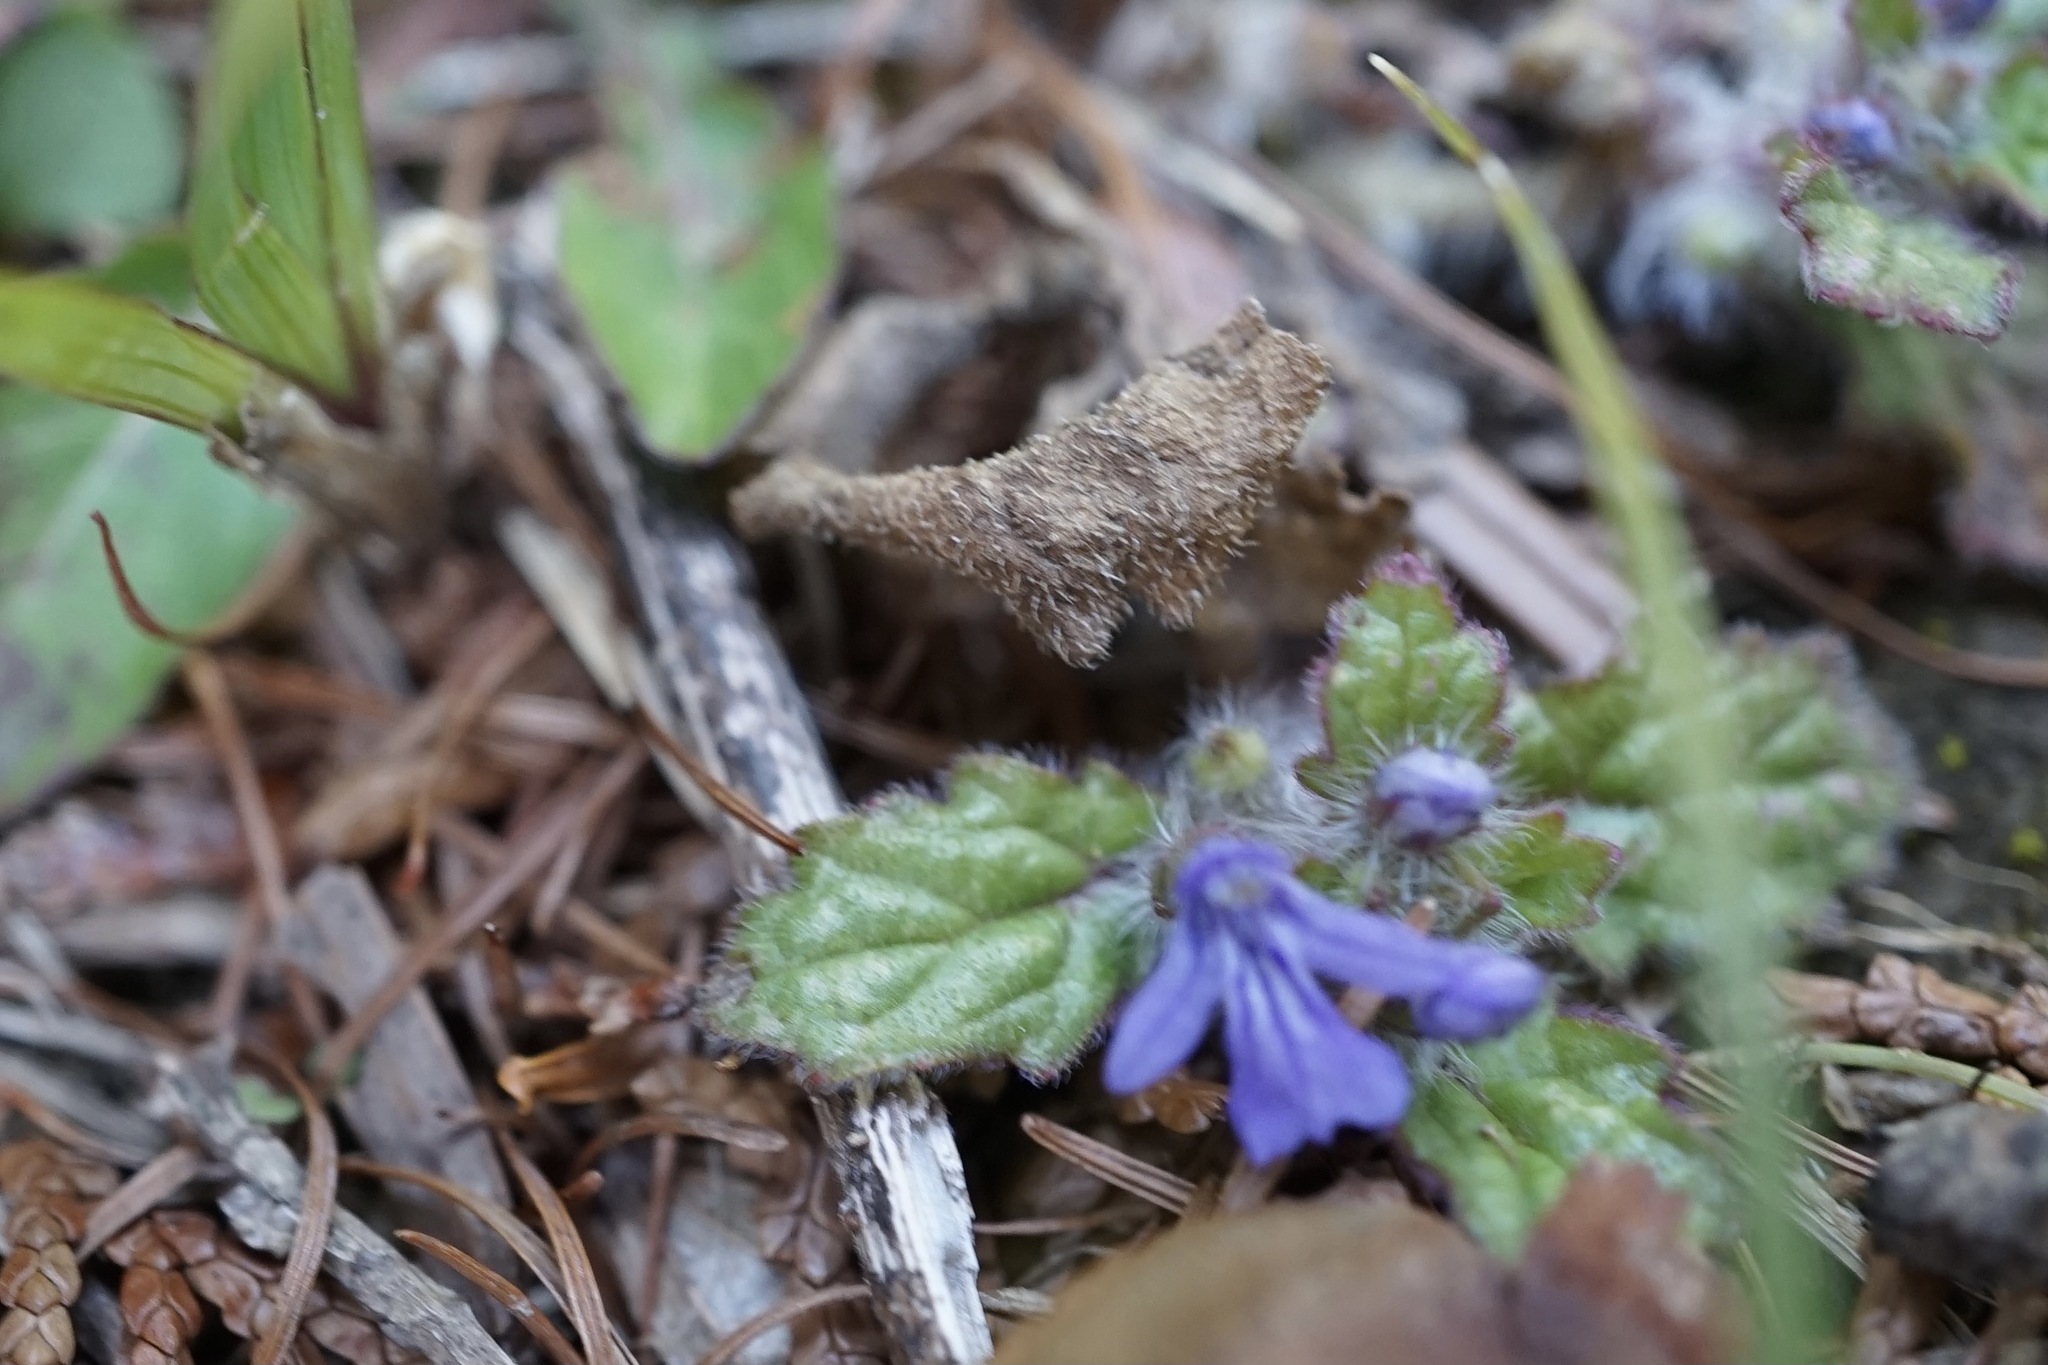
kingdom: Plantae
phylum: Tracheophyta
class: Magnoliopsida
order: Lamiales
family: Lamiaceae
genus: Ajuga
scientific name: Ajuga decumbens
